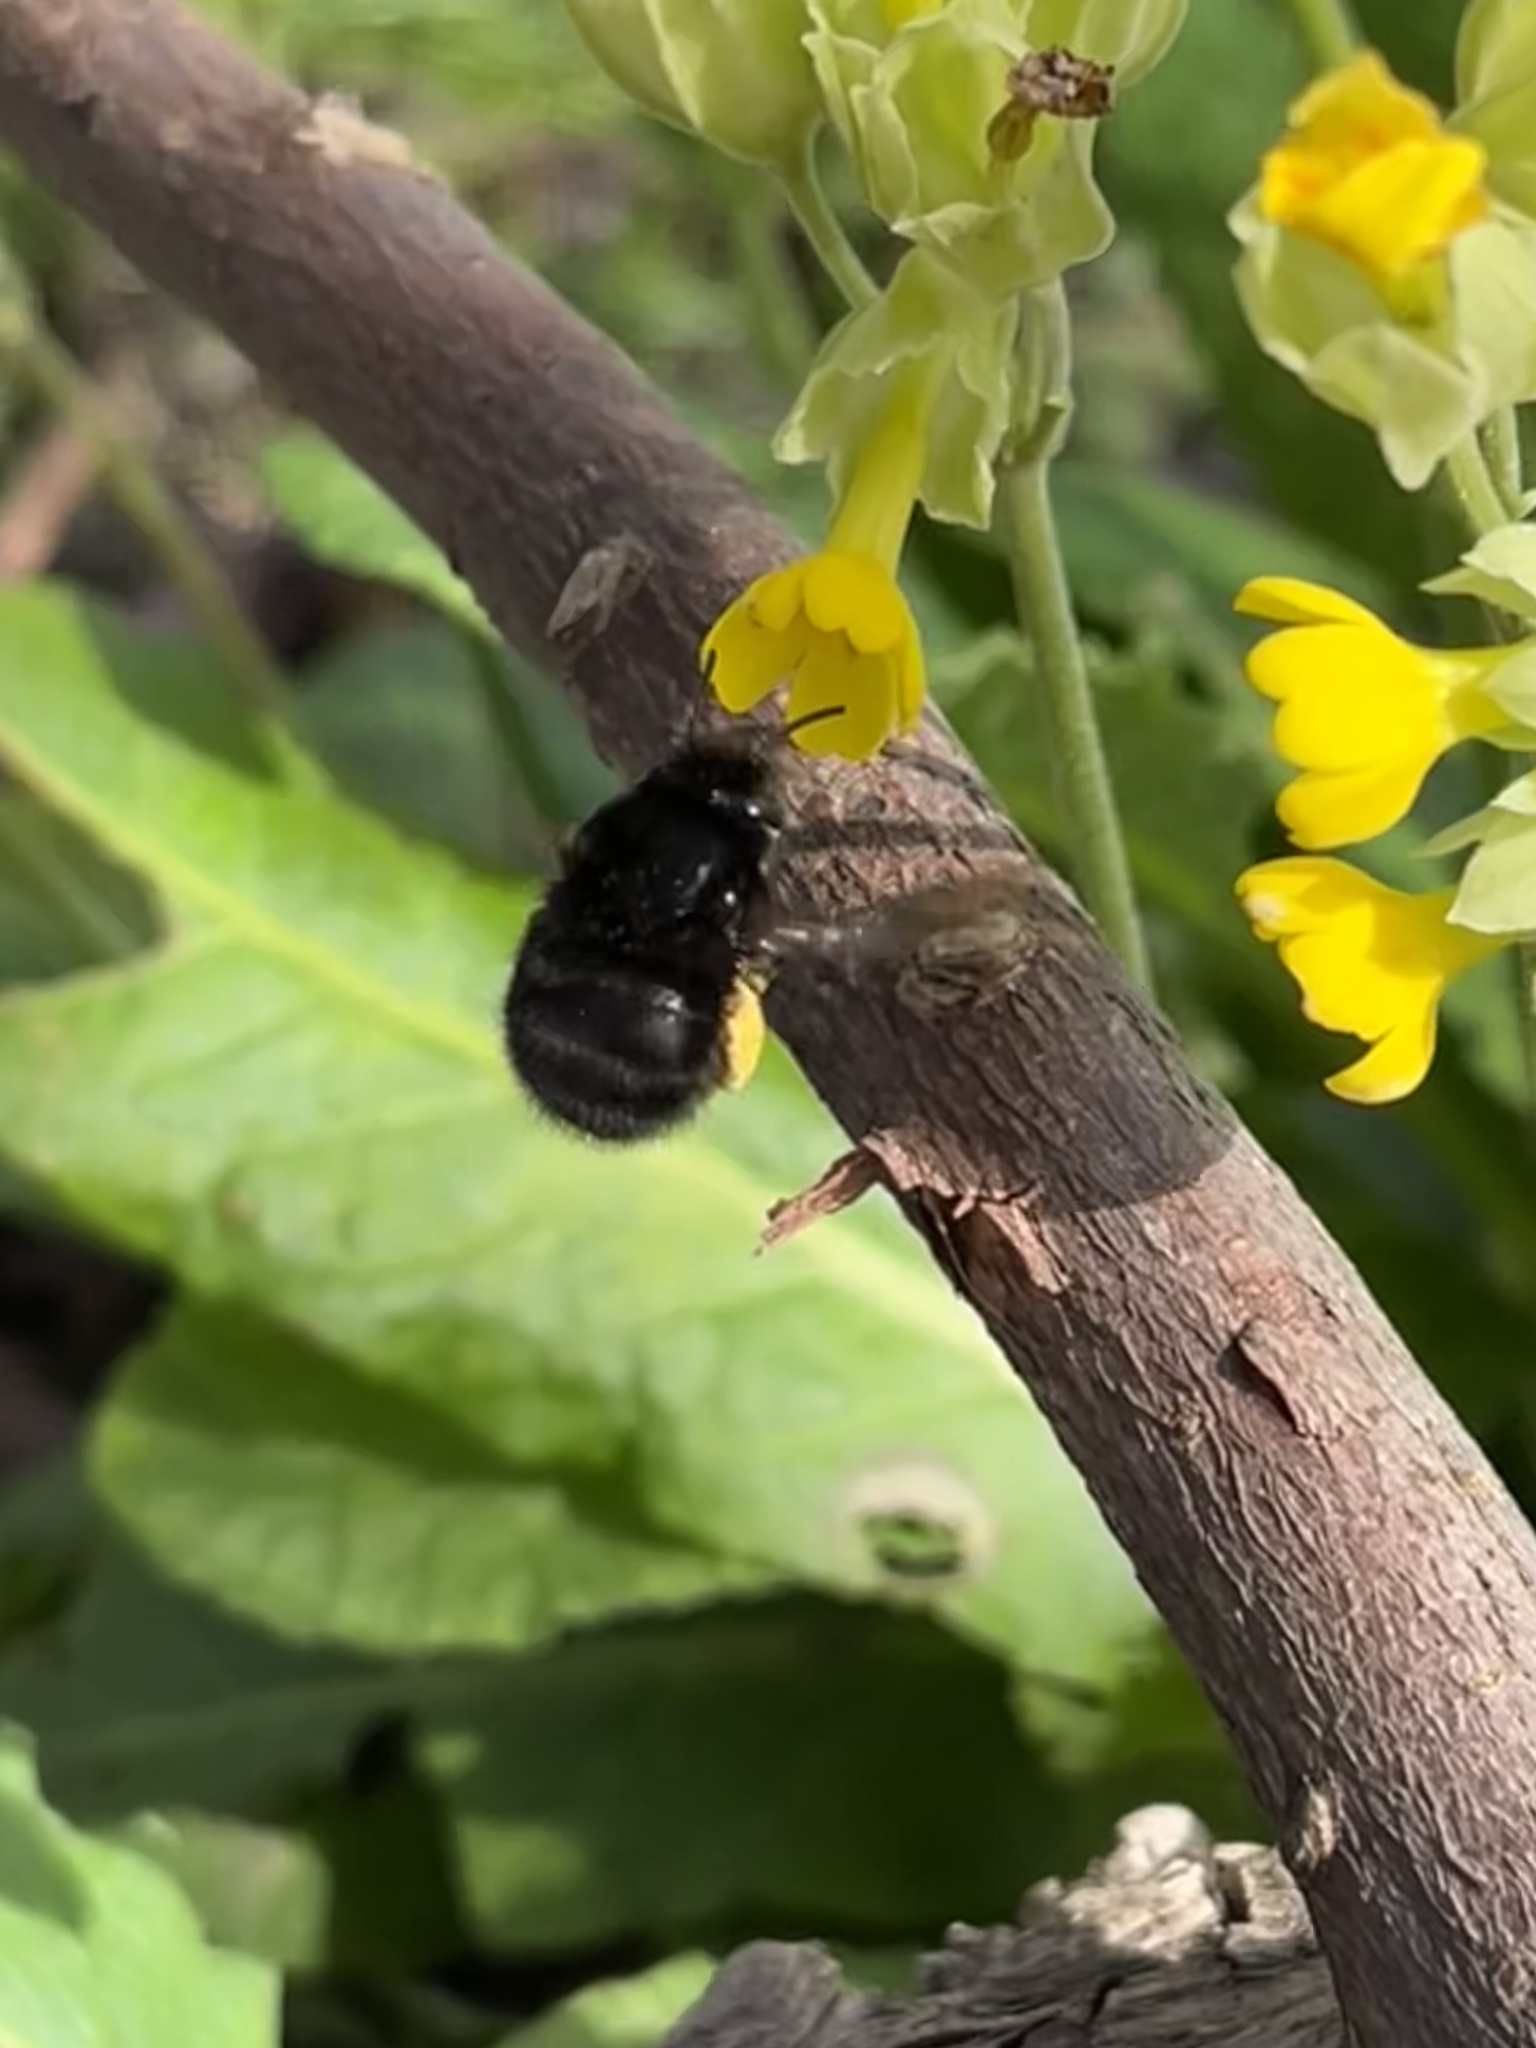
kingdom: Animalia
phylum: Arthropoda
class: Insecta
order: Hymenoptera
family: Apidae
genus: Anthophora
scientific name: Anthophora plumipes
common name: Hairy-footed flower bee
